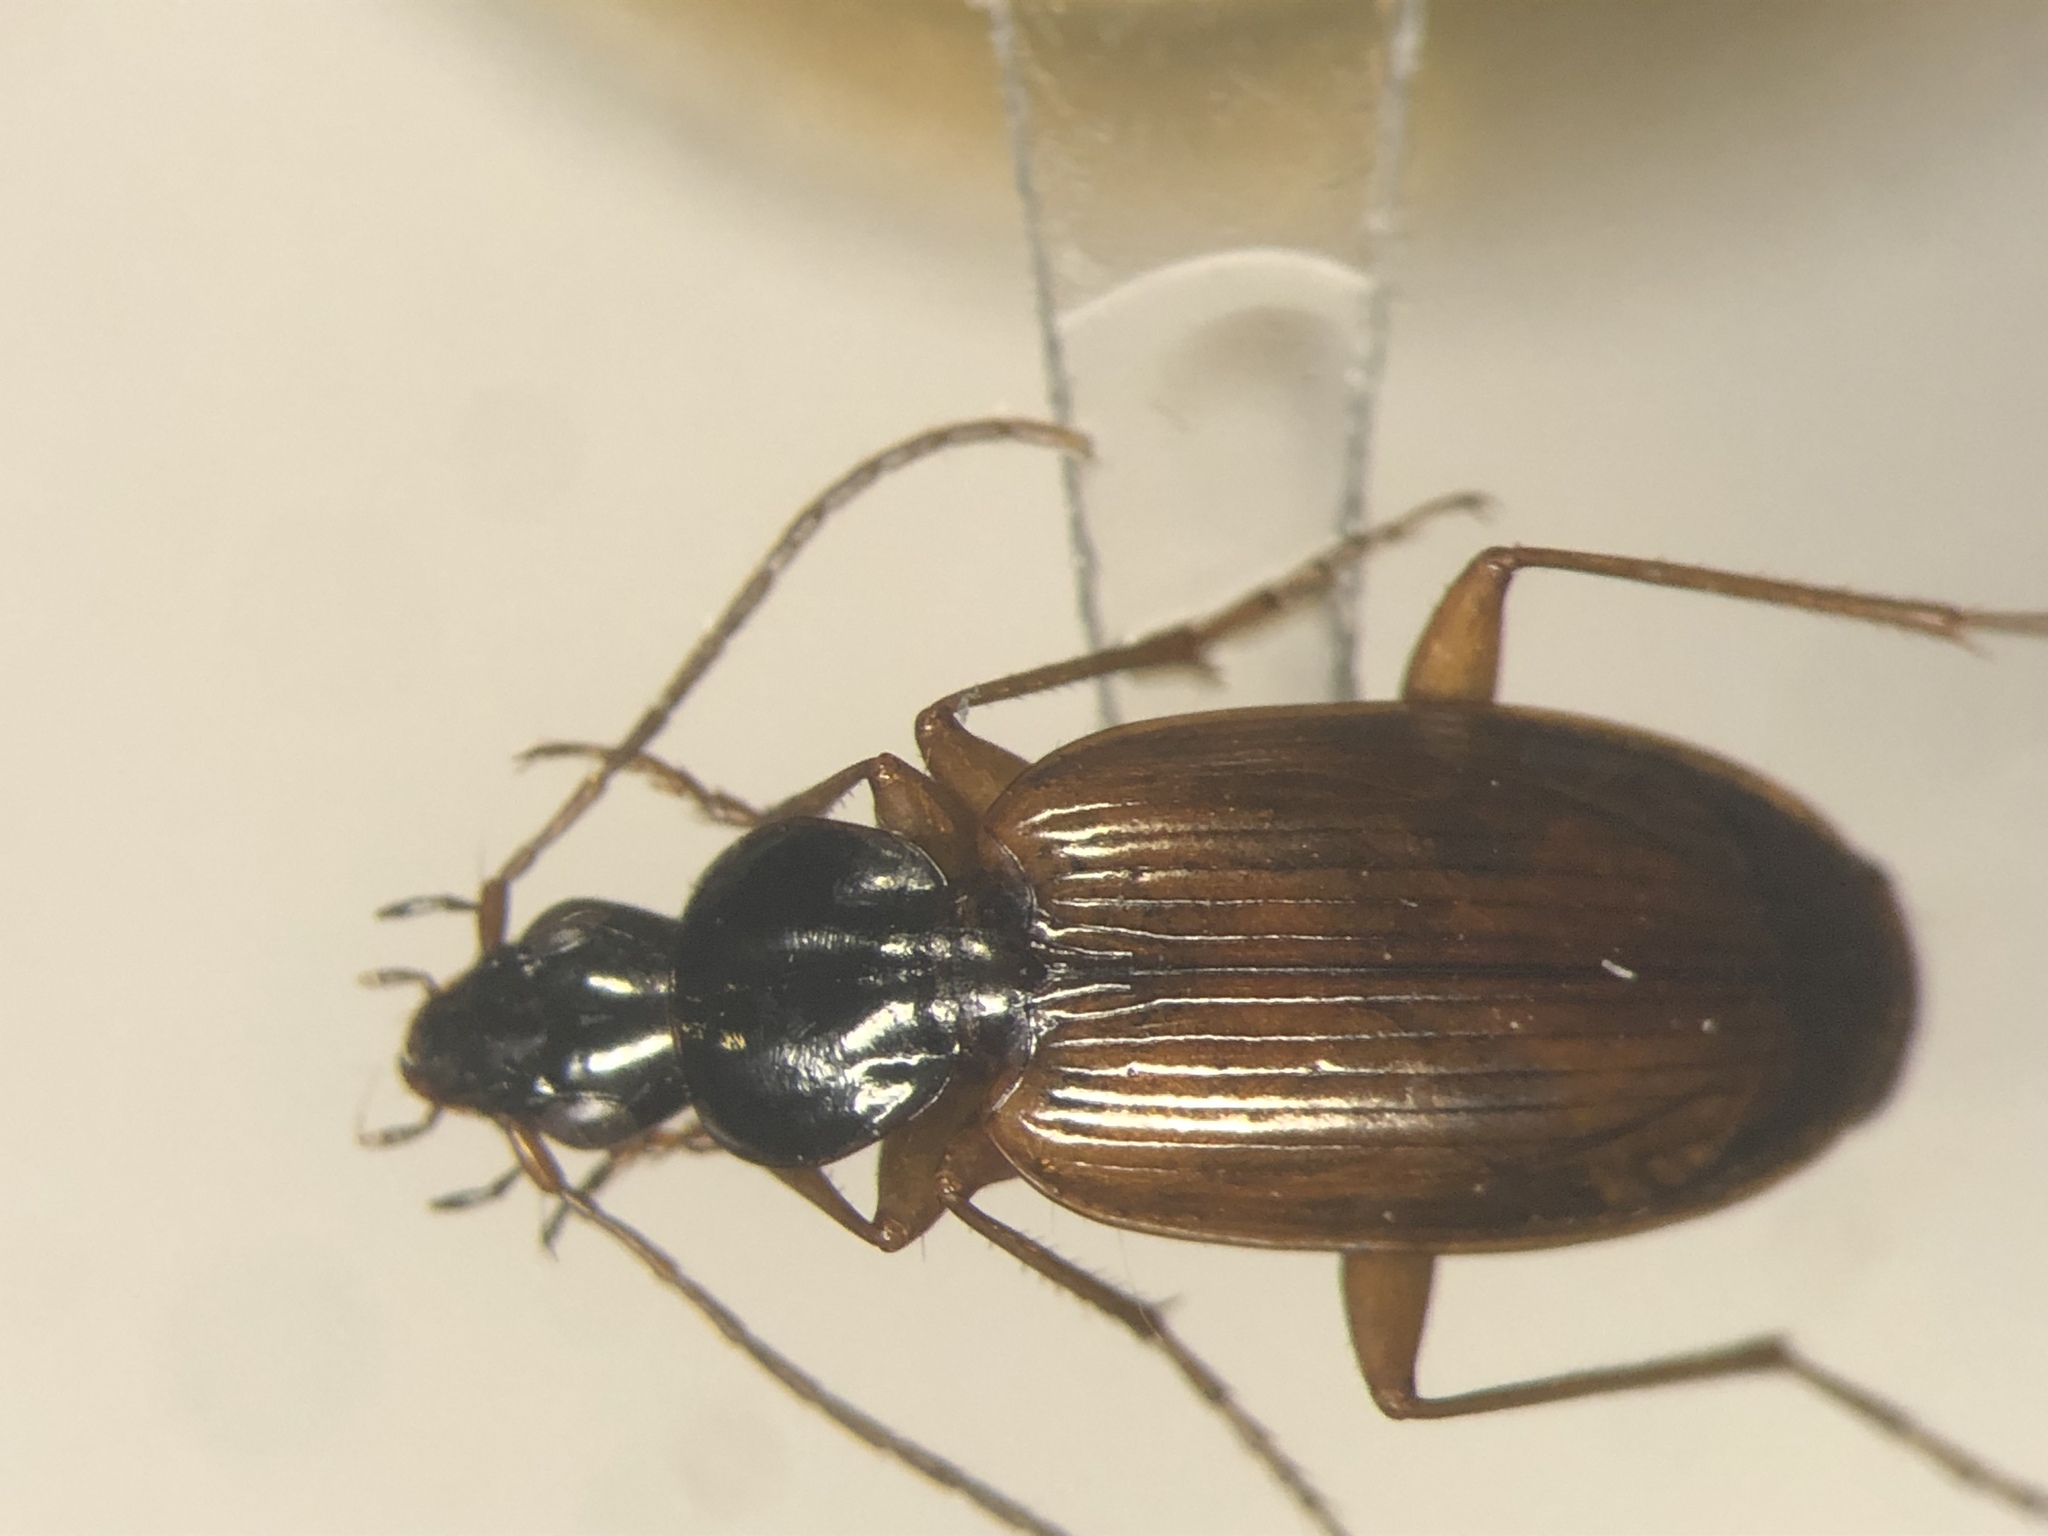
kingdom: Animalia
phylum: Arthropoda
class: Insecta
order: Coleoptera
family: Carabidae
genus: Agonum
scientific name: Agonum palustre
